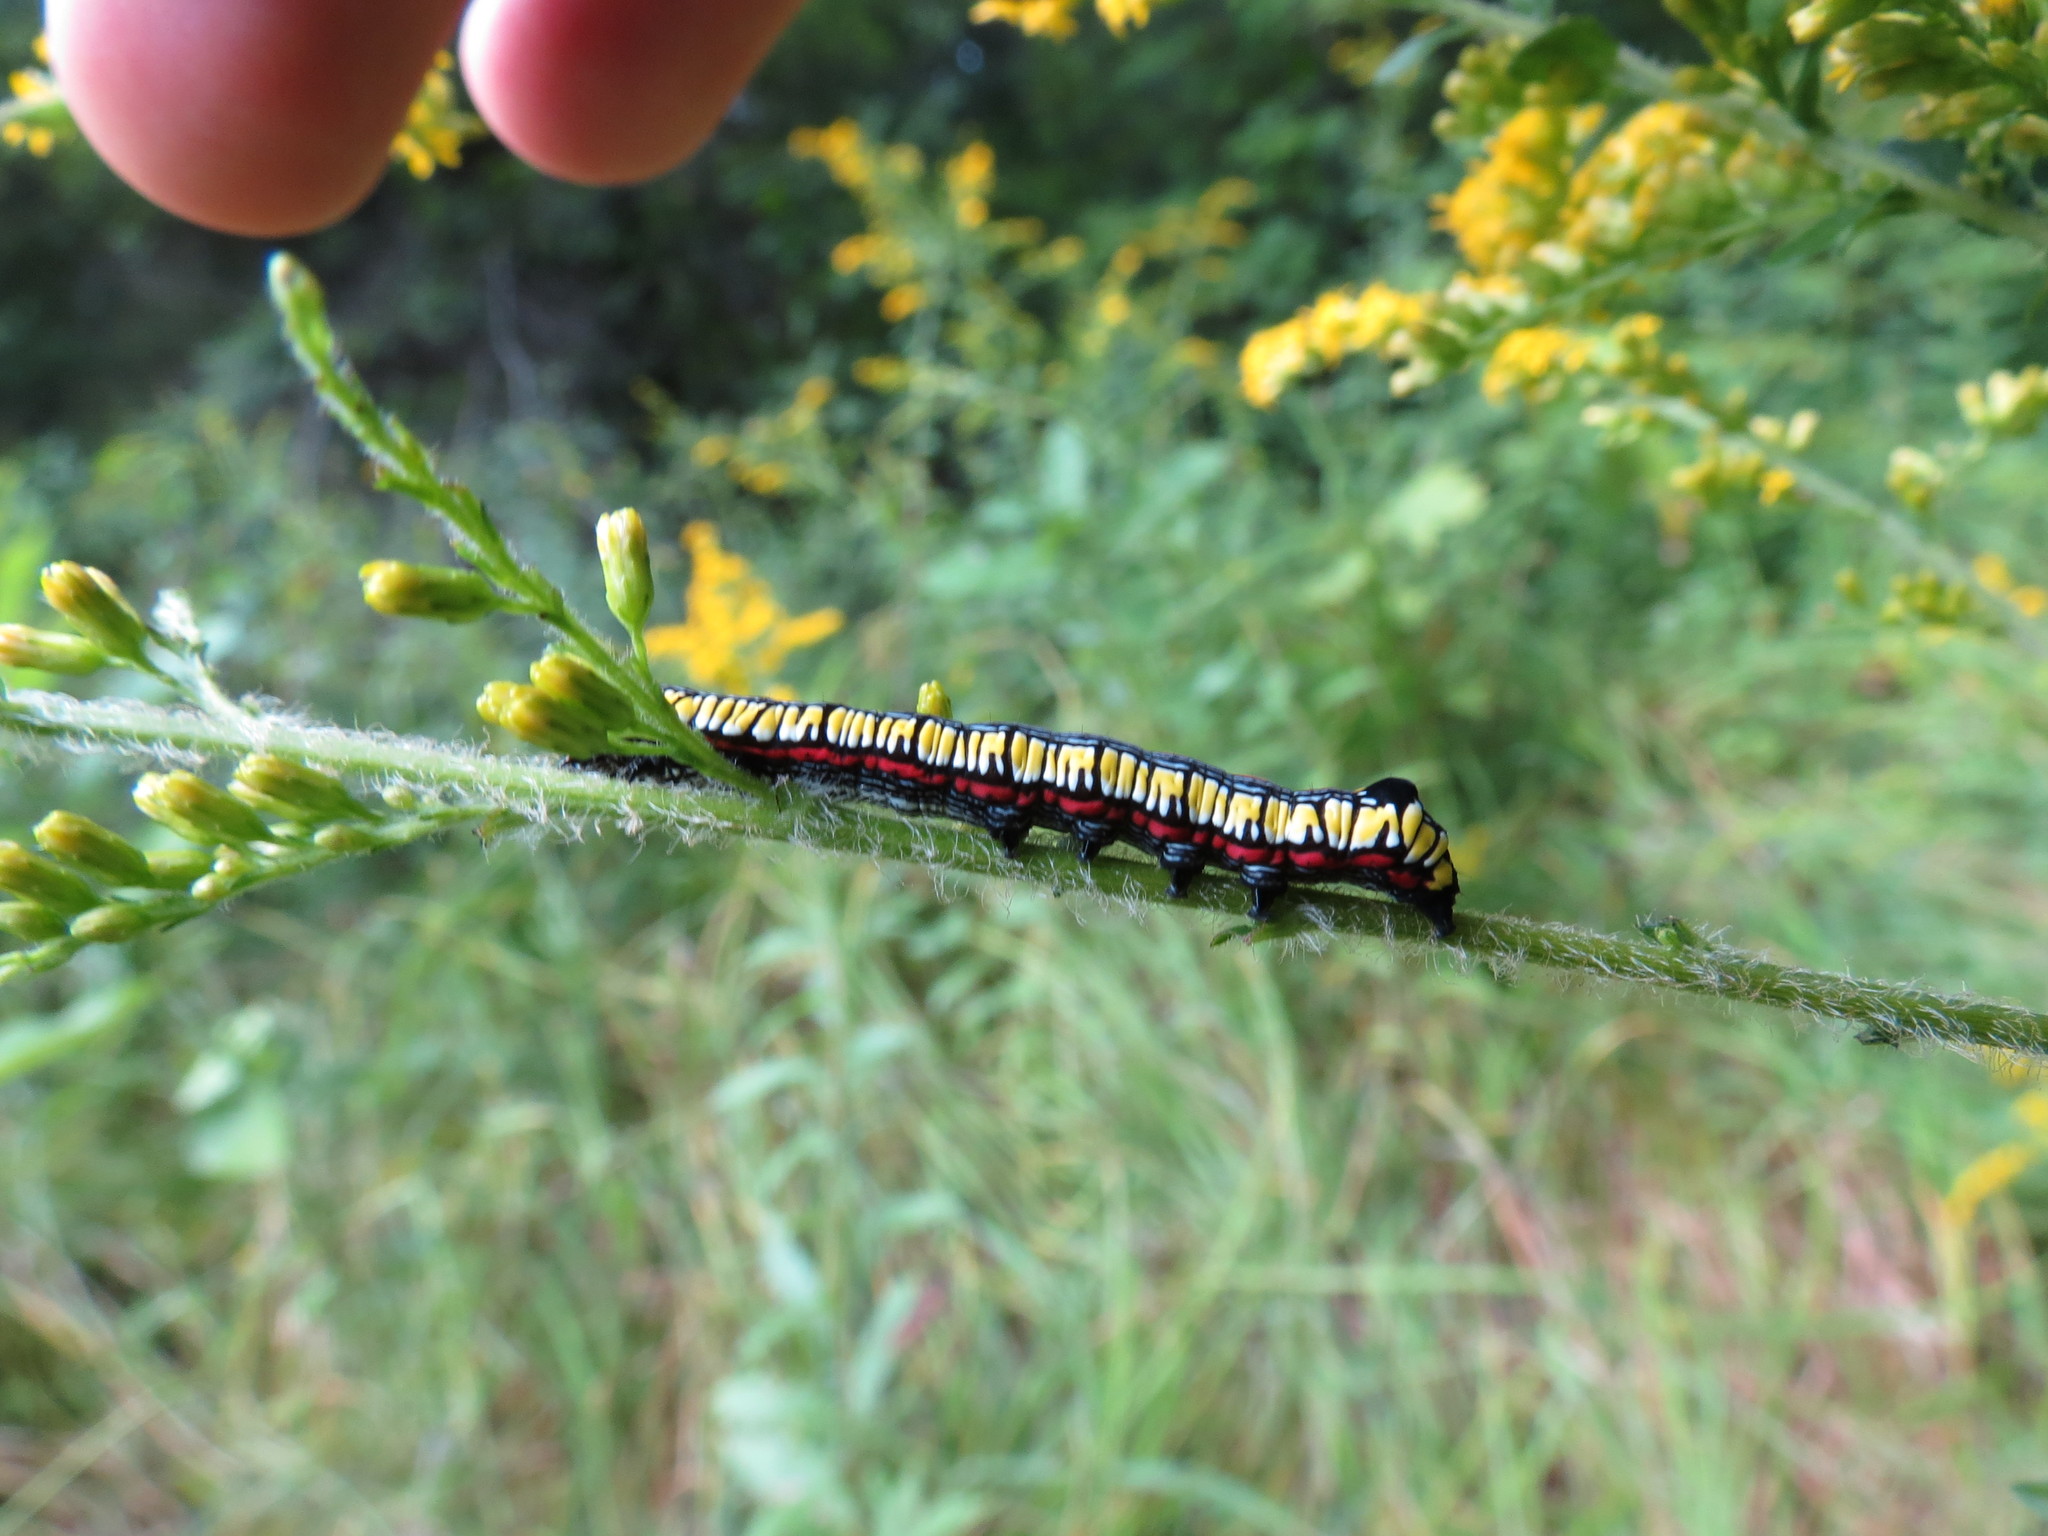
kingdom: Animalia
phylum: Arthropoda
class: Insecta
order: Lepidoptera
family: Noctuidae
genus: Cucullia
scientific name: Cucullia convexipennis
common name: Brown-hooded owlet
